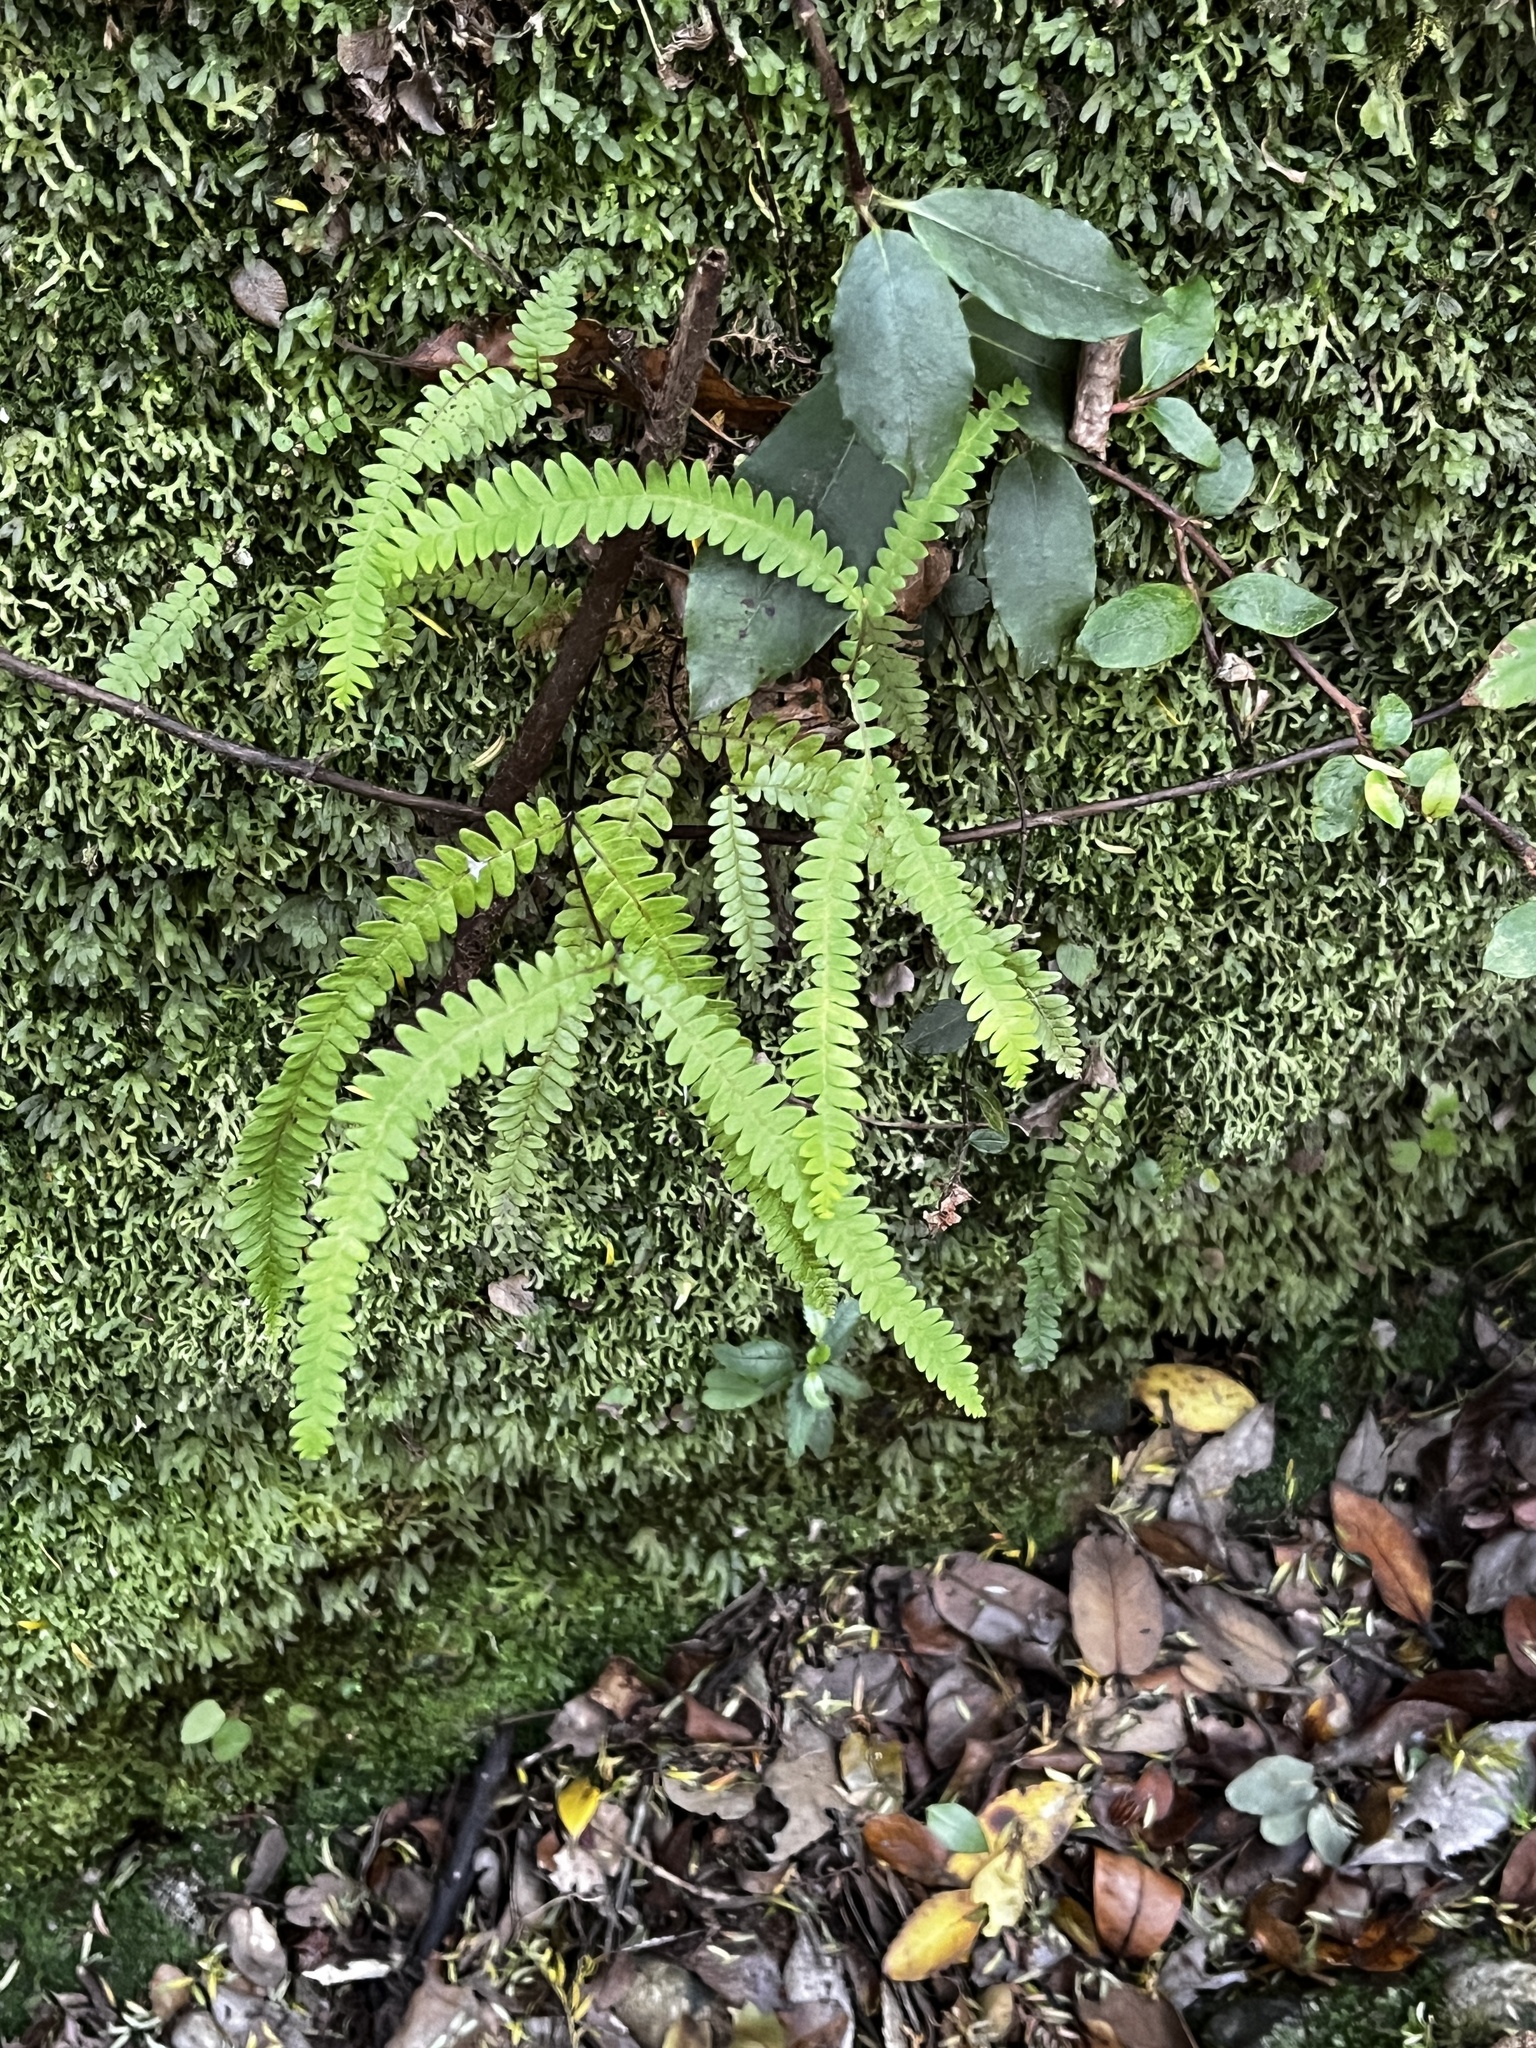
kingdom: Plantae
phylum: Tracheophyta
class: Polypodiopsida
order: Gleicheniales
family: Gleicheniaceae
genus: Sticherus
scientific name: Sticherus squamulosus
